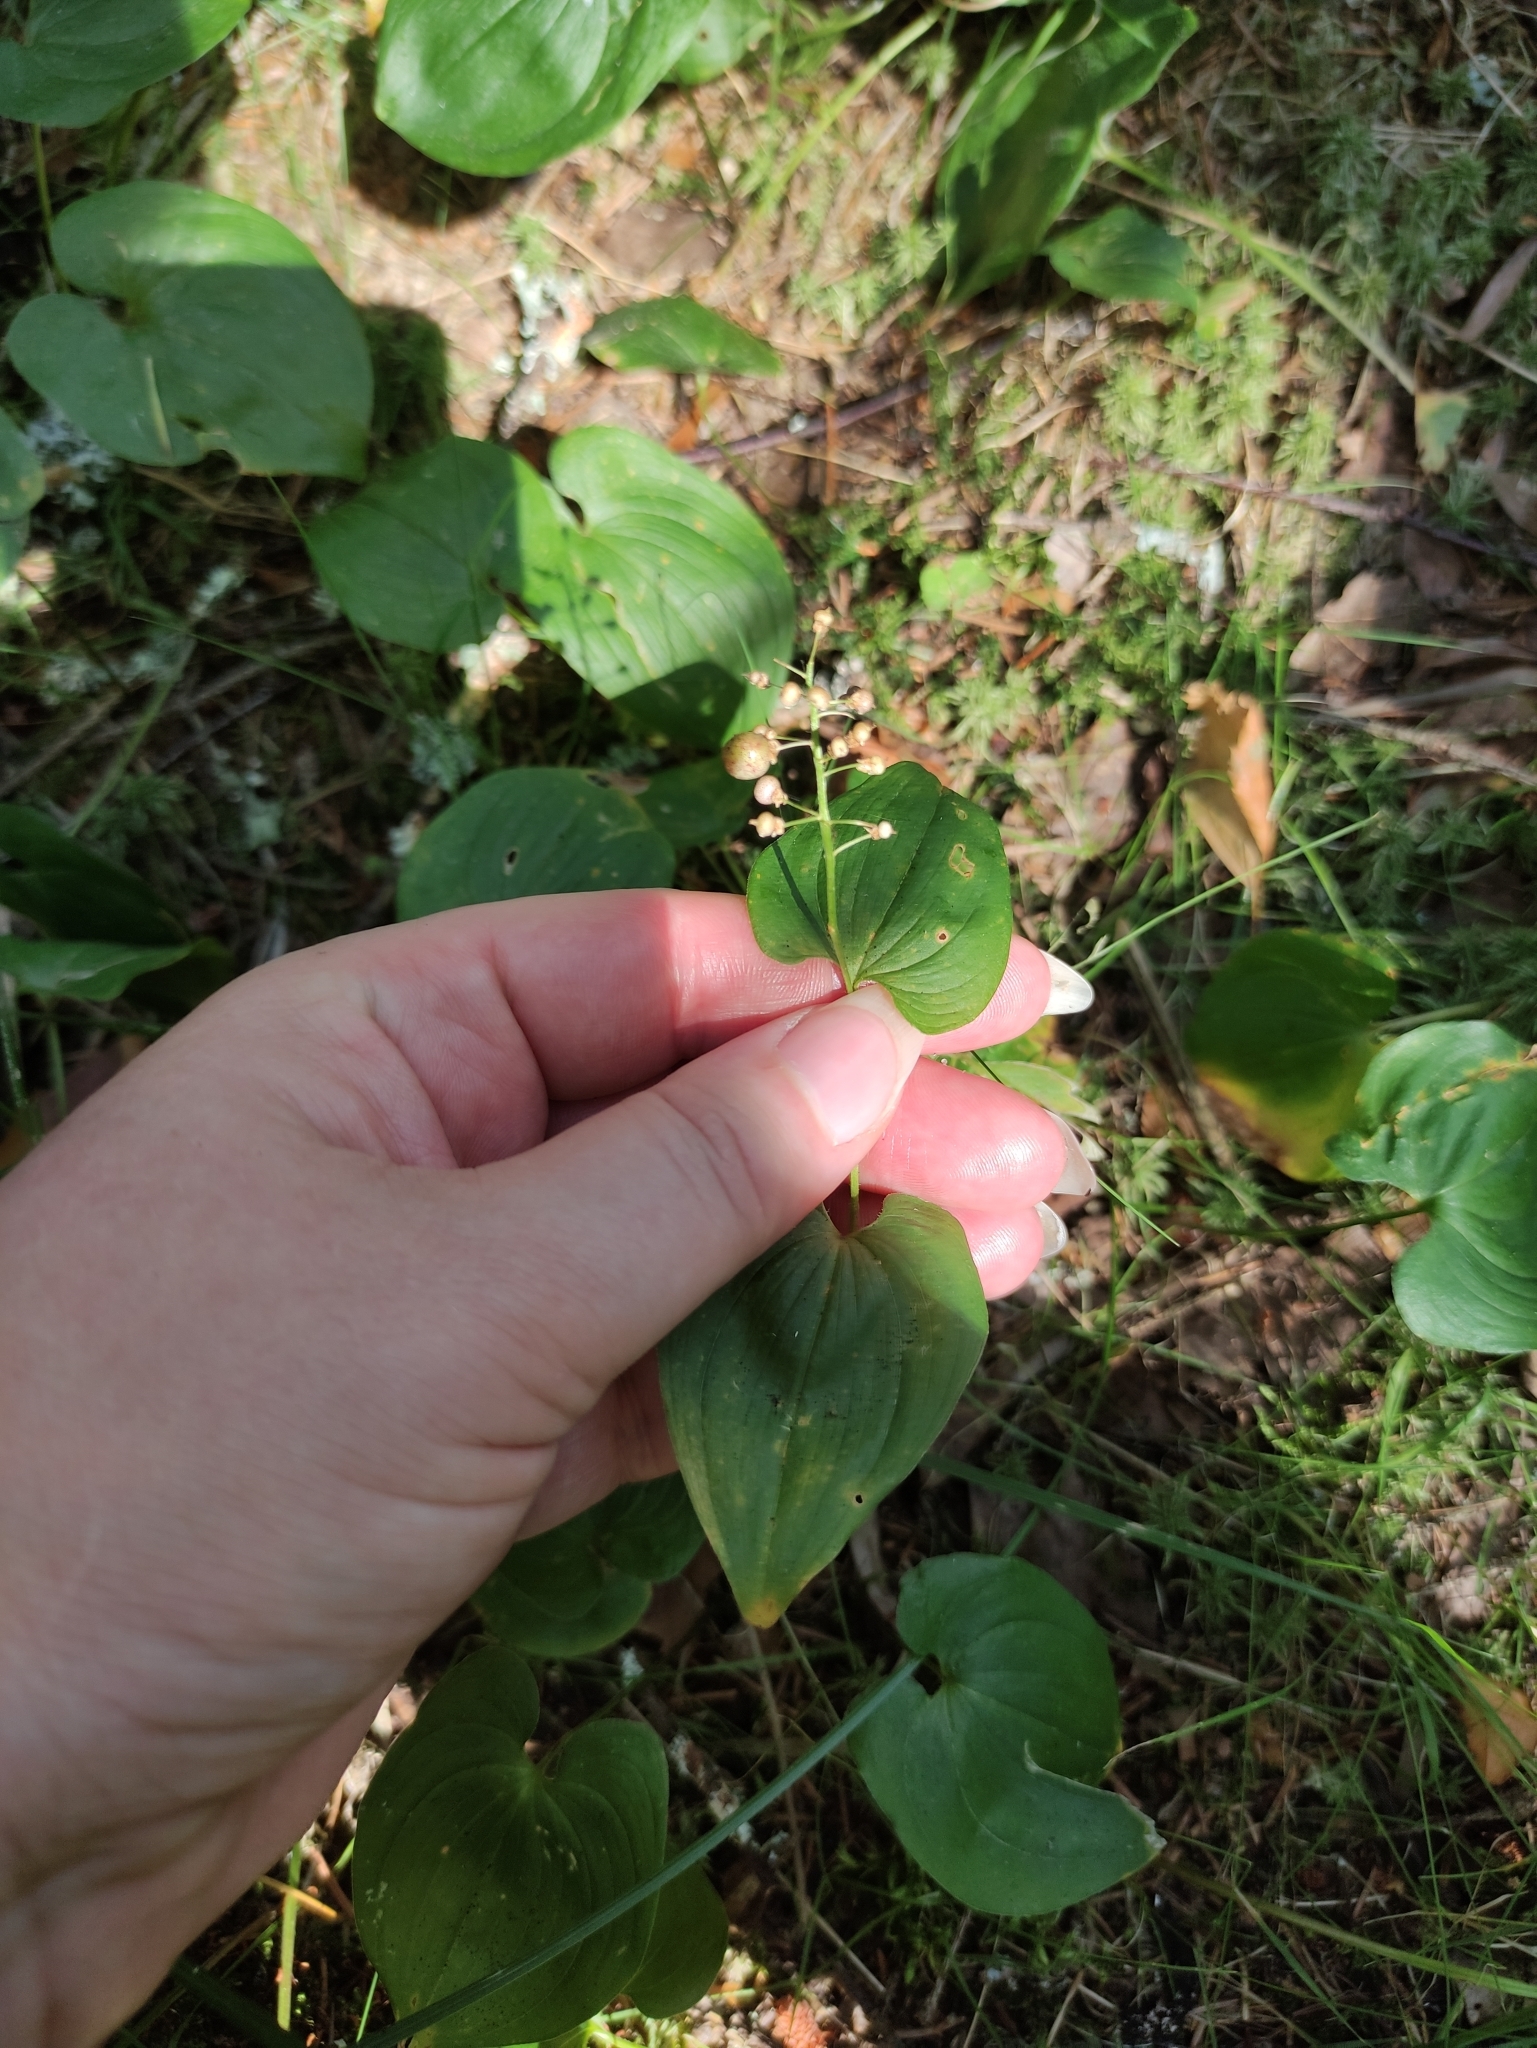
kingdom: Plantae
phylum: Tracheophyta
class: Liliopsida
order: Asparagales
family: Asparagaceae
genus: Maianthemum
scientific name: Maianthemum bifolium
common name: May lily
